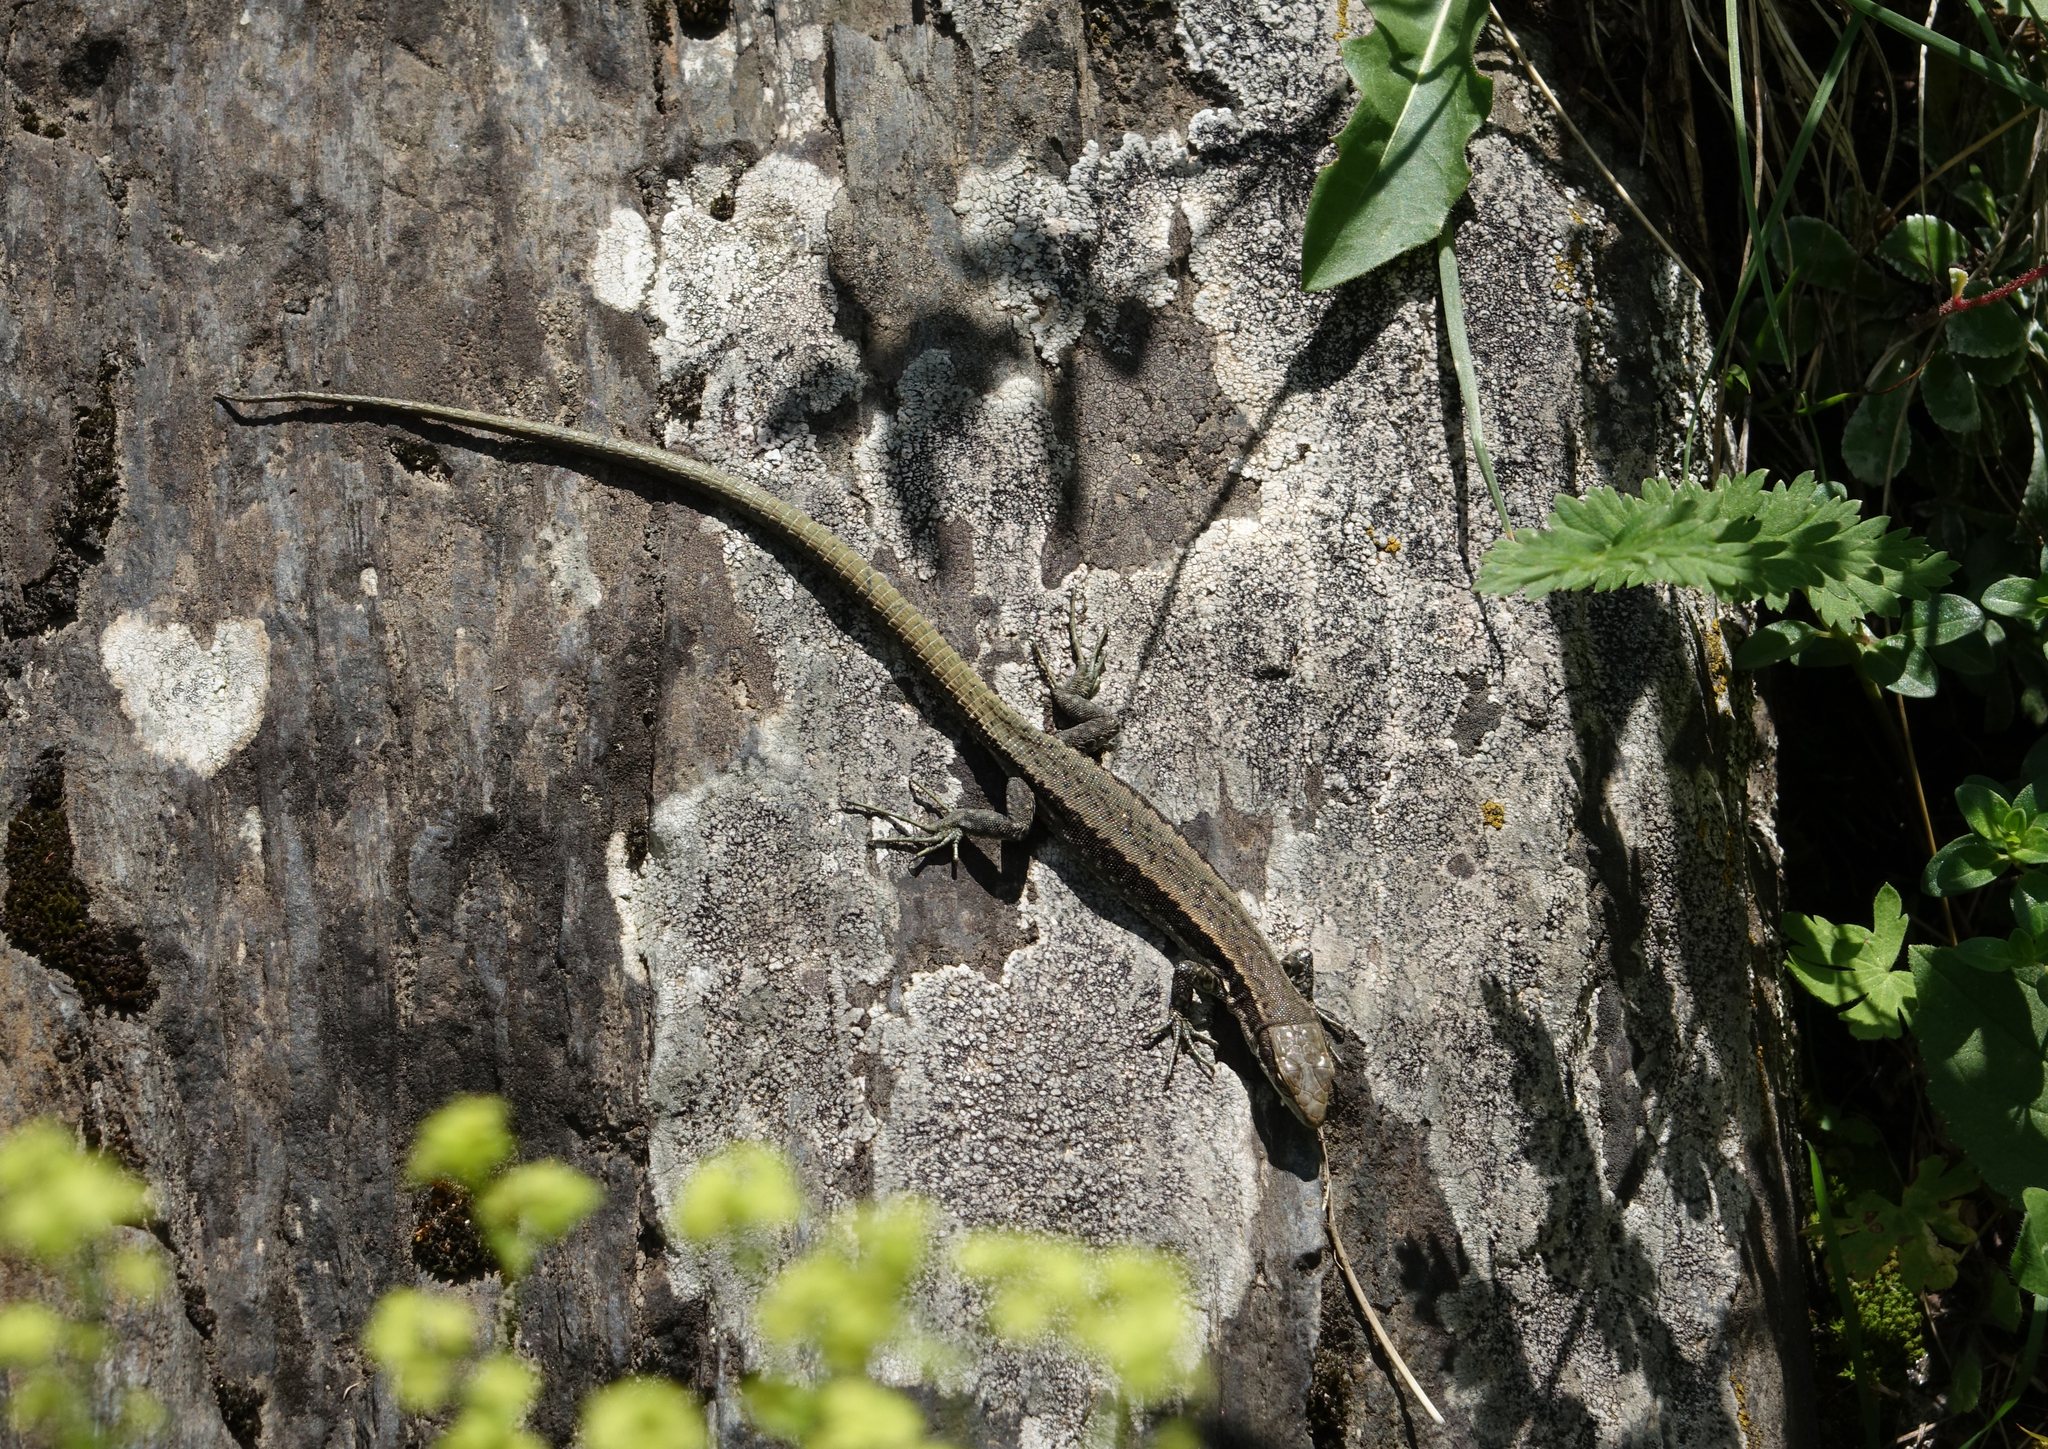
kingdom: Animalia
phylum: Chordata
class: Squamata
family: Lacertidae
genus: Darevskia
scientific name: Darevskia daghestanica
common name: Dagestan lizard
